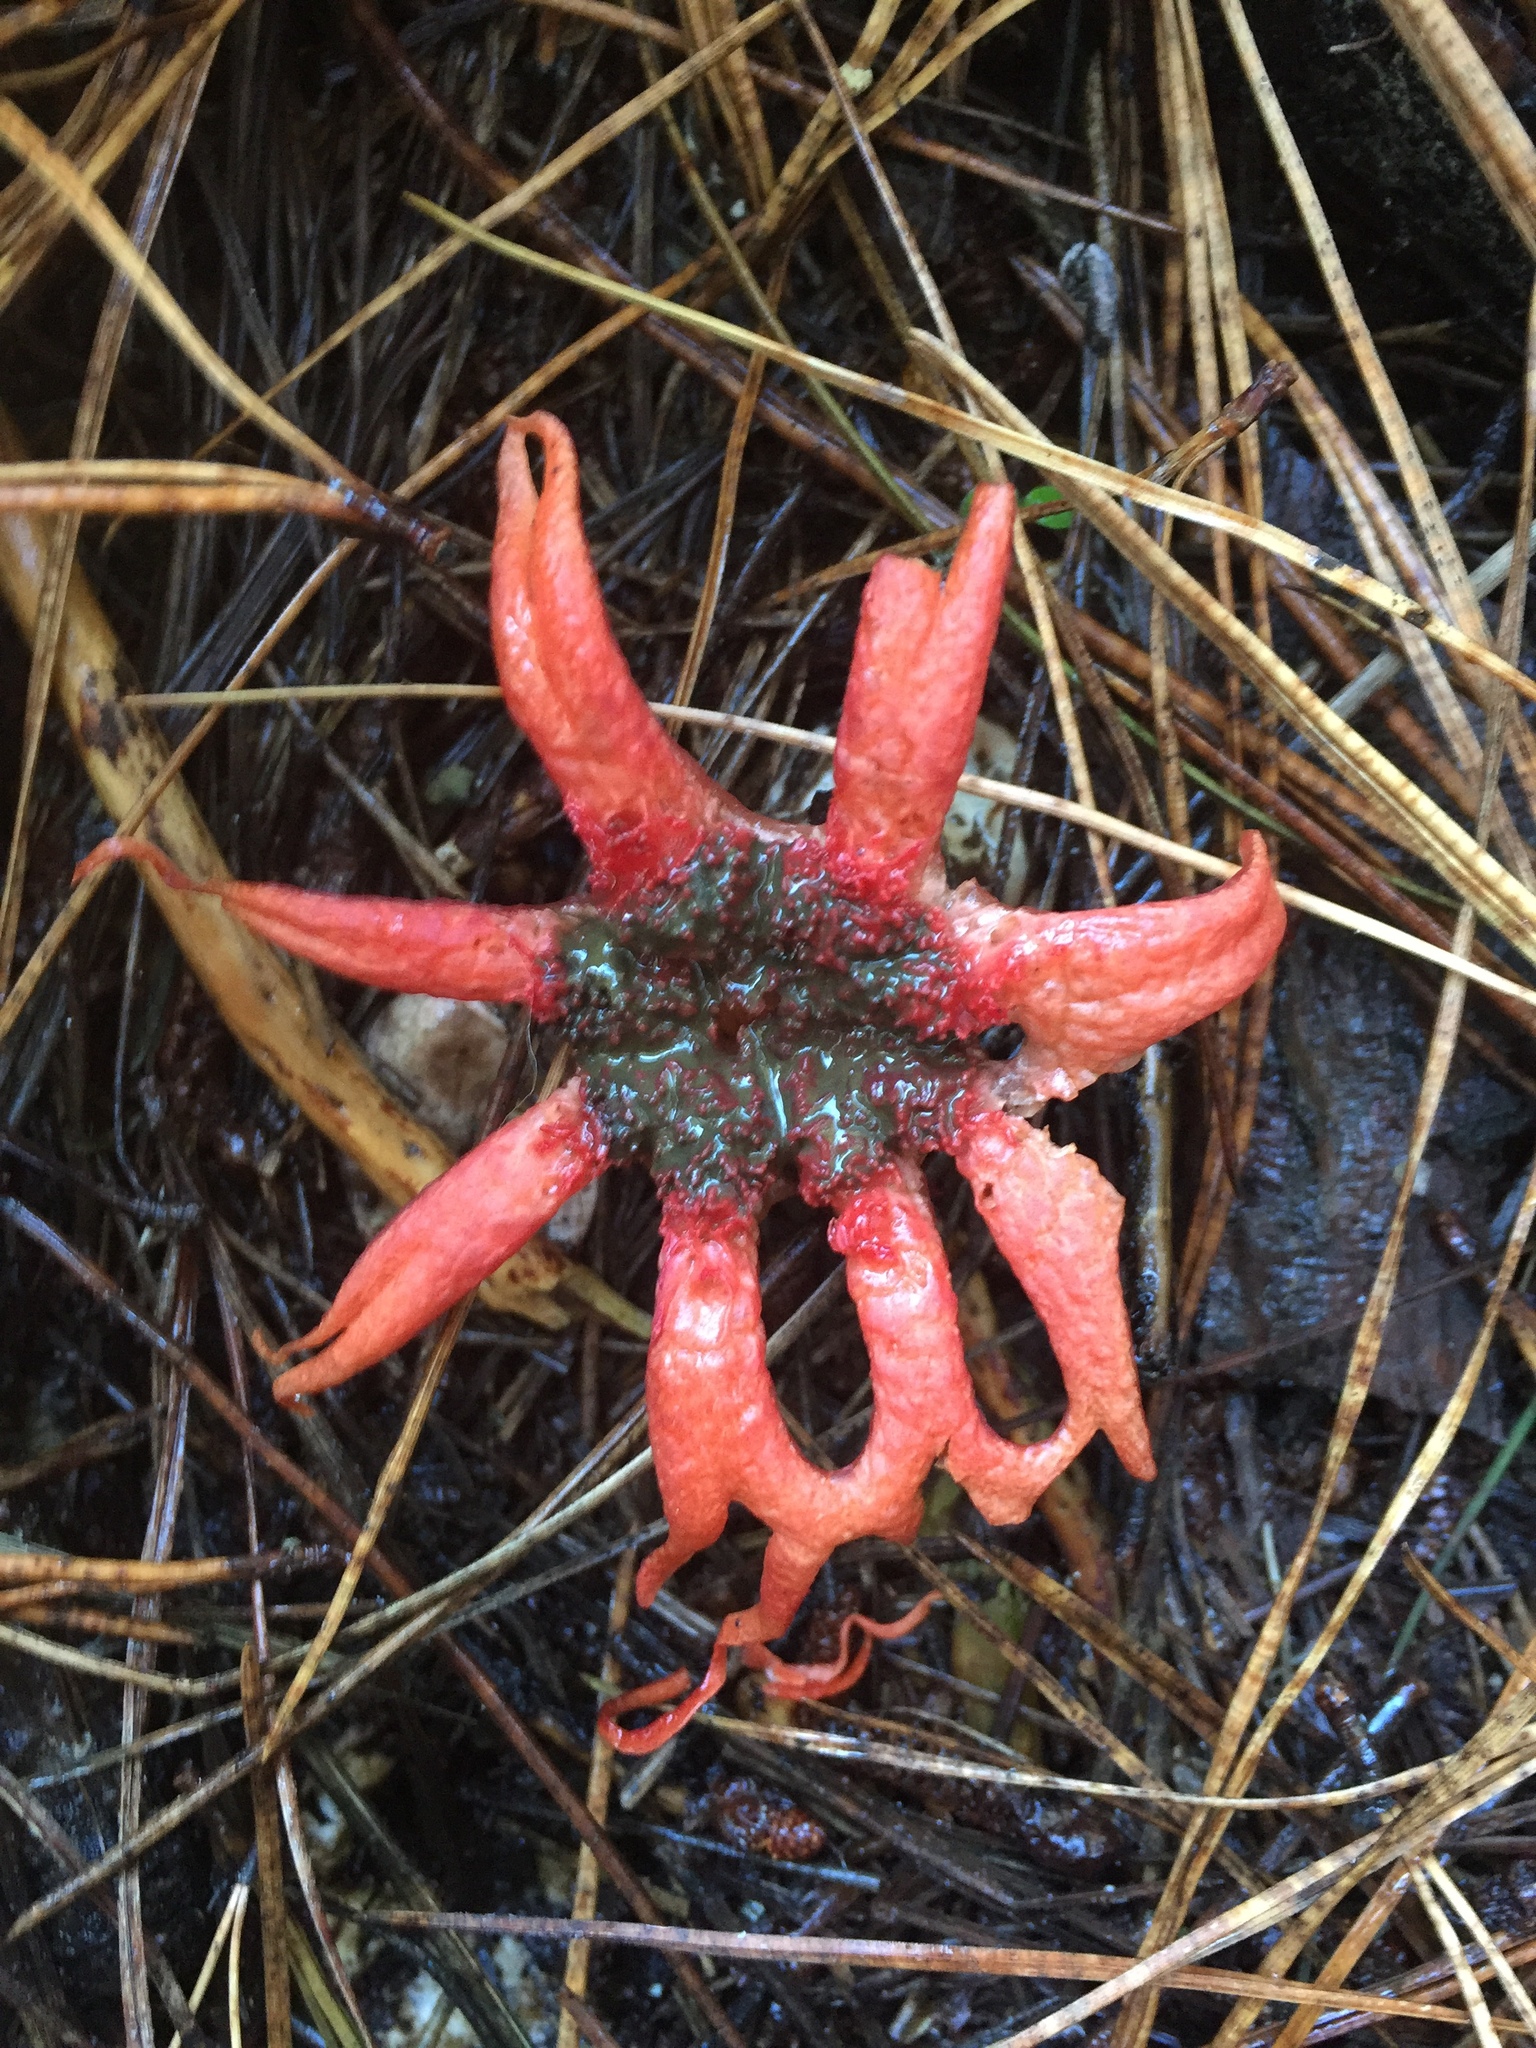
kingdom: Fungi
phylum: Basidiomycota
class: Agaricomycetes
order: Phallales
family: Phallaceae
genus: Aseroe
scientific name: Aseroe rubra
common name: Starfish fungus
